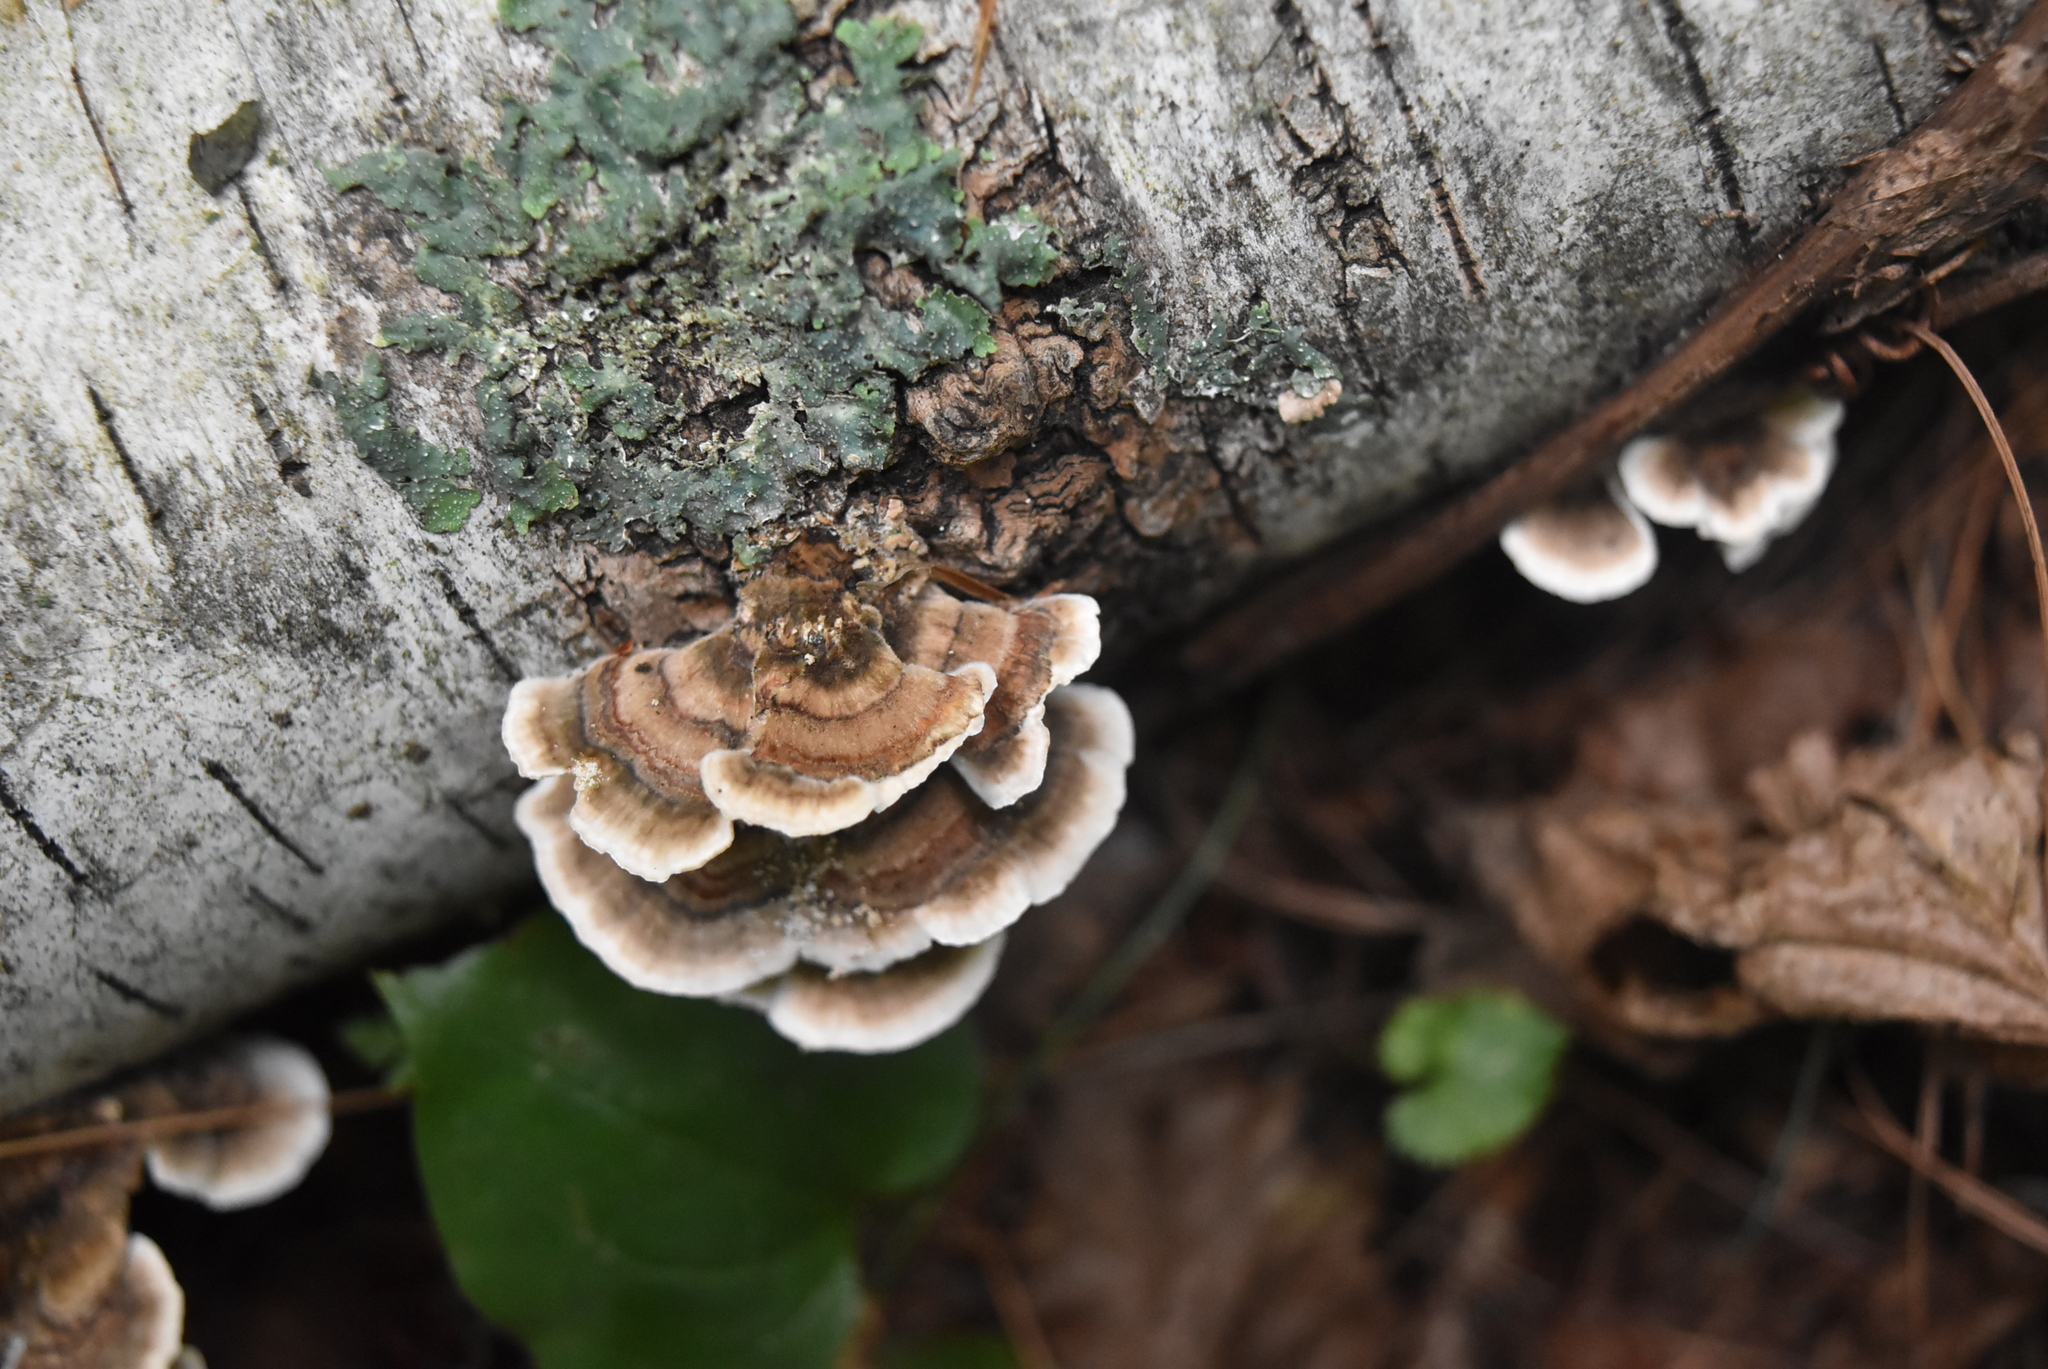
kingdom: Fungi
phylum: Basidiomycota
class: Agaricomycetes
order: Polyporales
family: Polyporaceae
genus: Trametes
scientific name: Trametes versicolor
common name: Turkeytail
